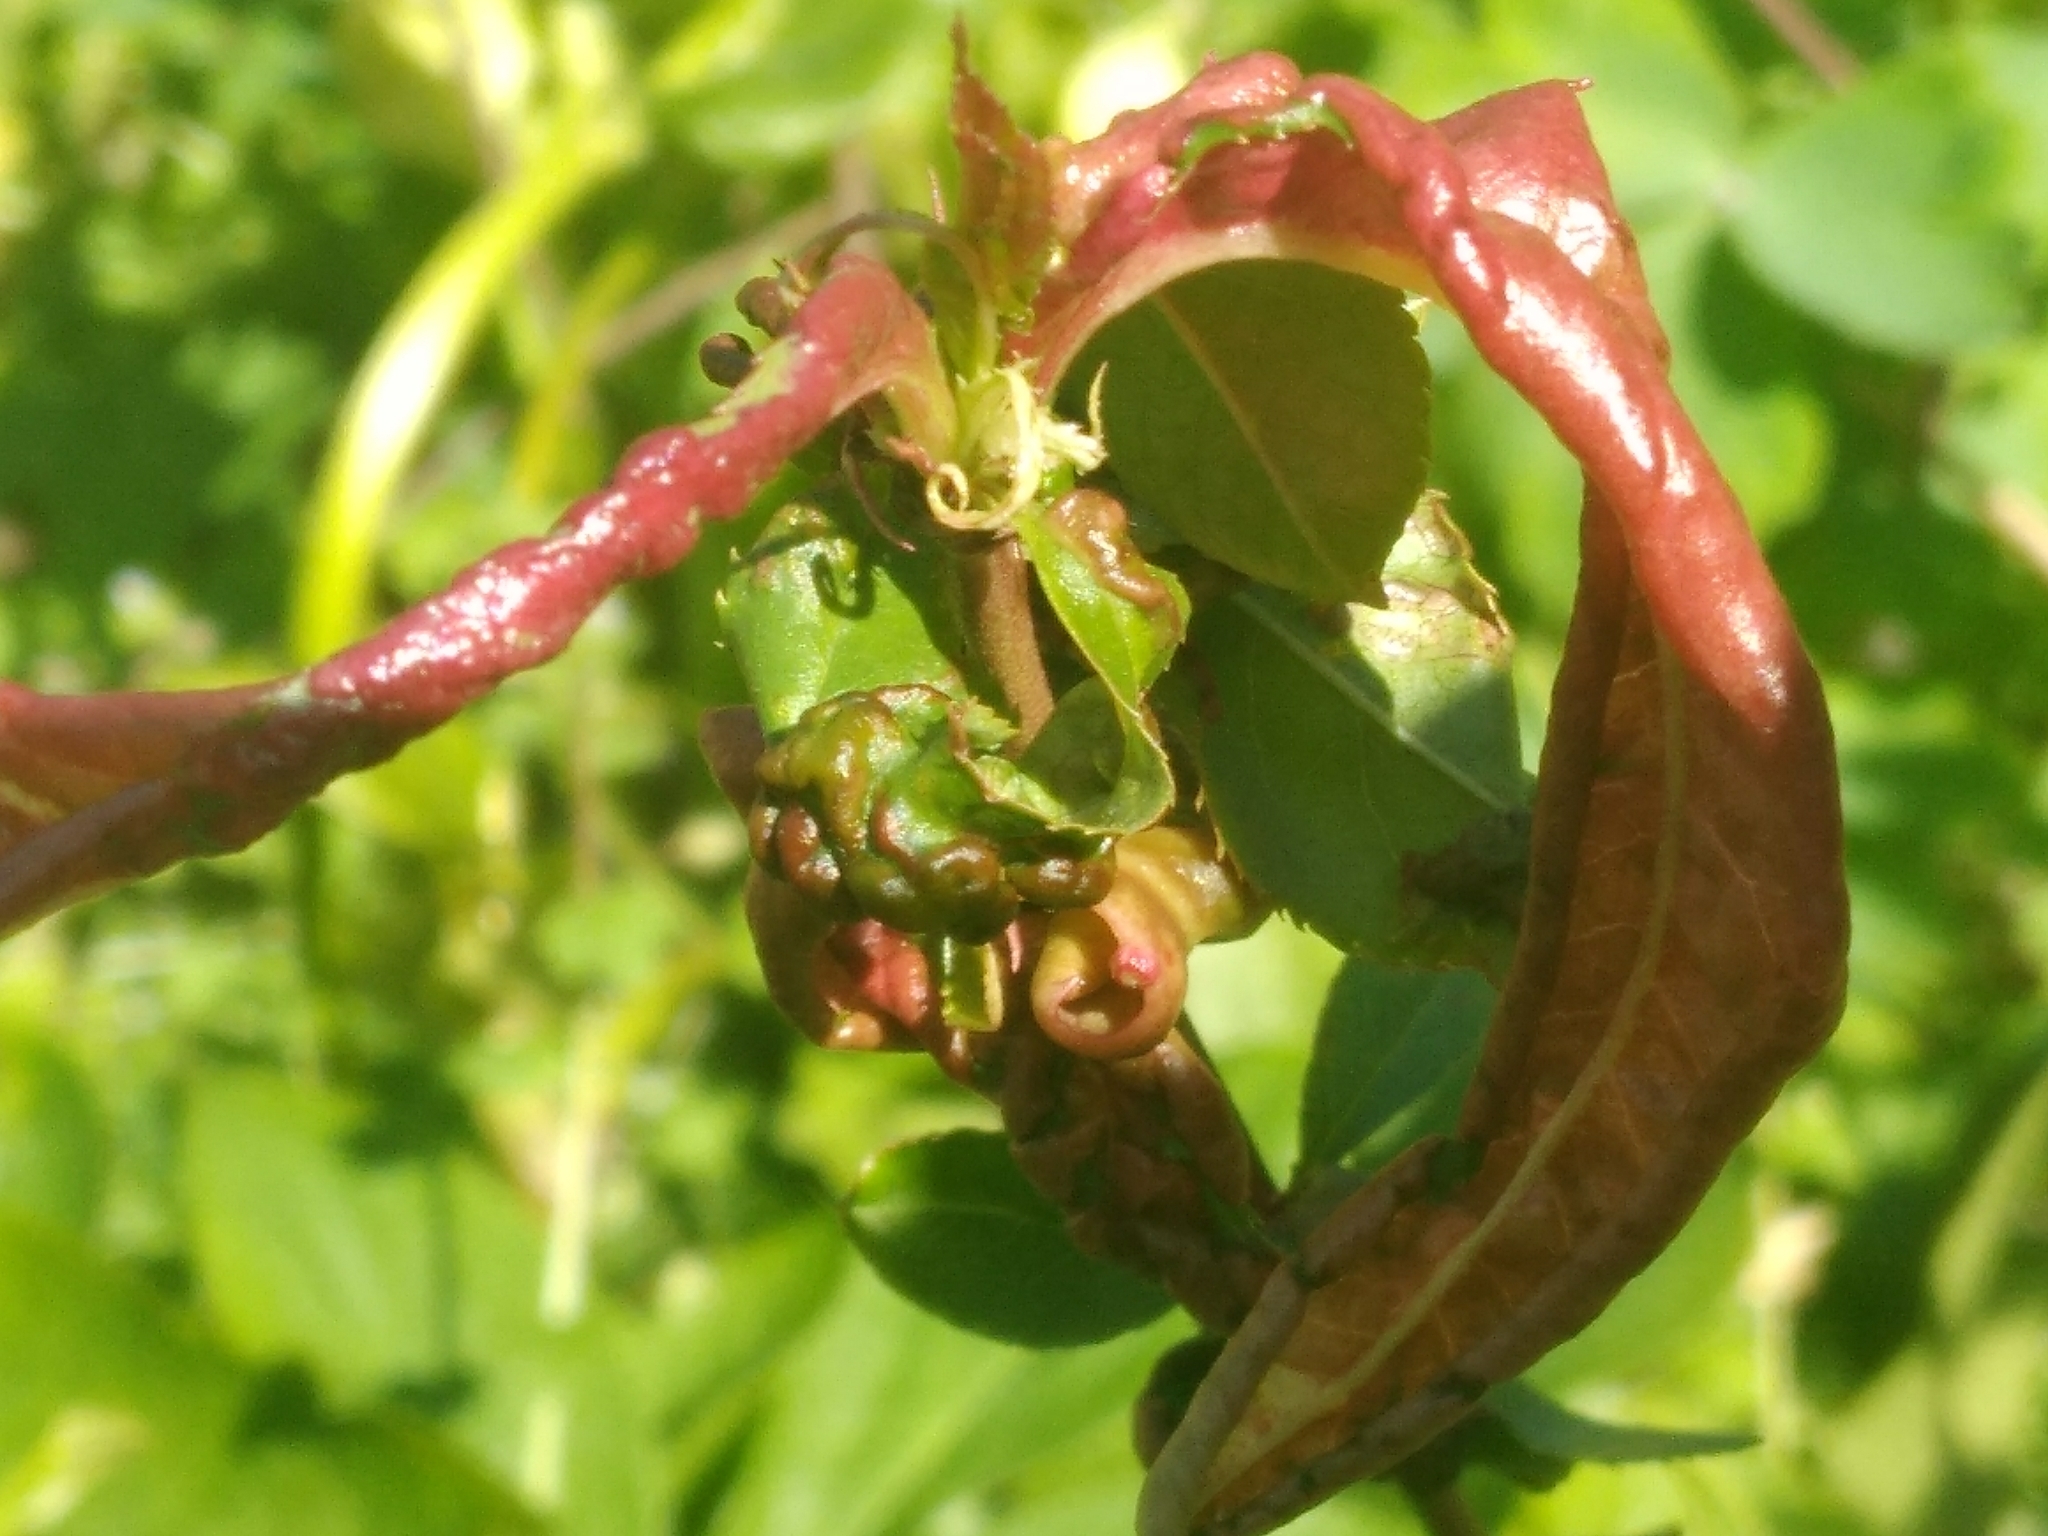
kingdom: Fungi
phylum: Ascomycota
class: Taphrinomycetes
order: Taphrinales
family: Taphrinaceae
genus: Taphrina
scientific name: Taphrina deformans
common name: Peach leaf curl
